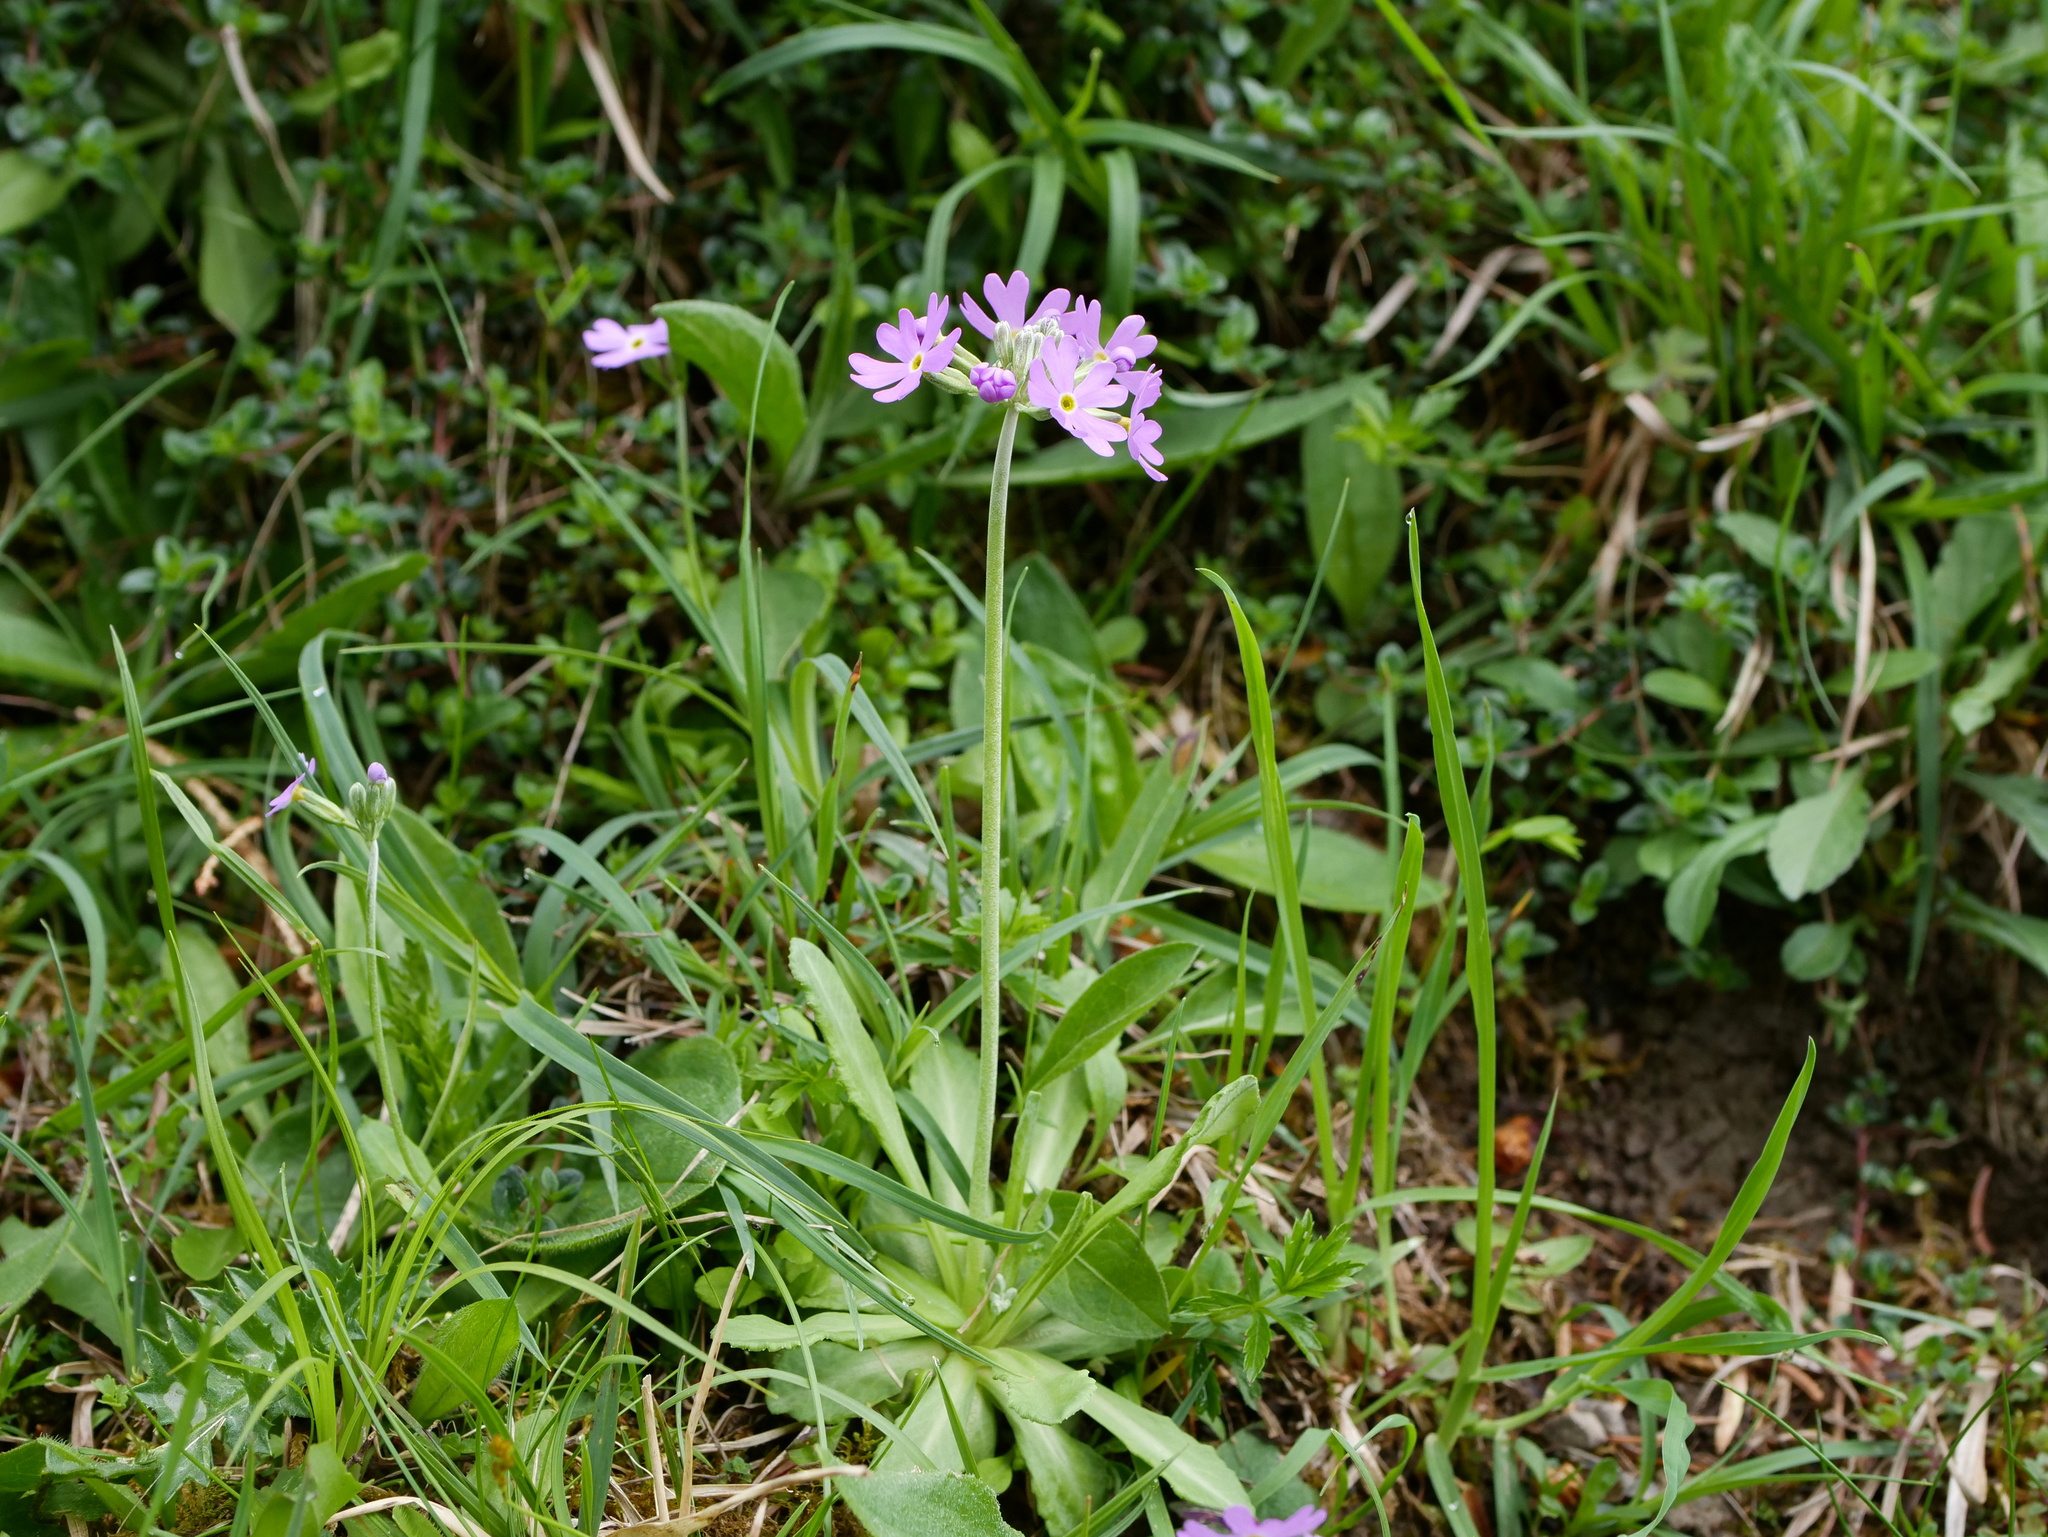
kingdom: Plantae
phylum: Tracheophyta
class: Magnoliopsida
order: Ericales
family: Primulaceae
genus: Primula
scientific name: Primula farinosa
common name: Bird's-eye primrose
